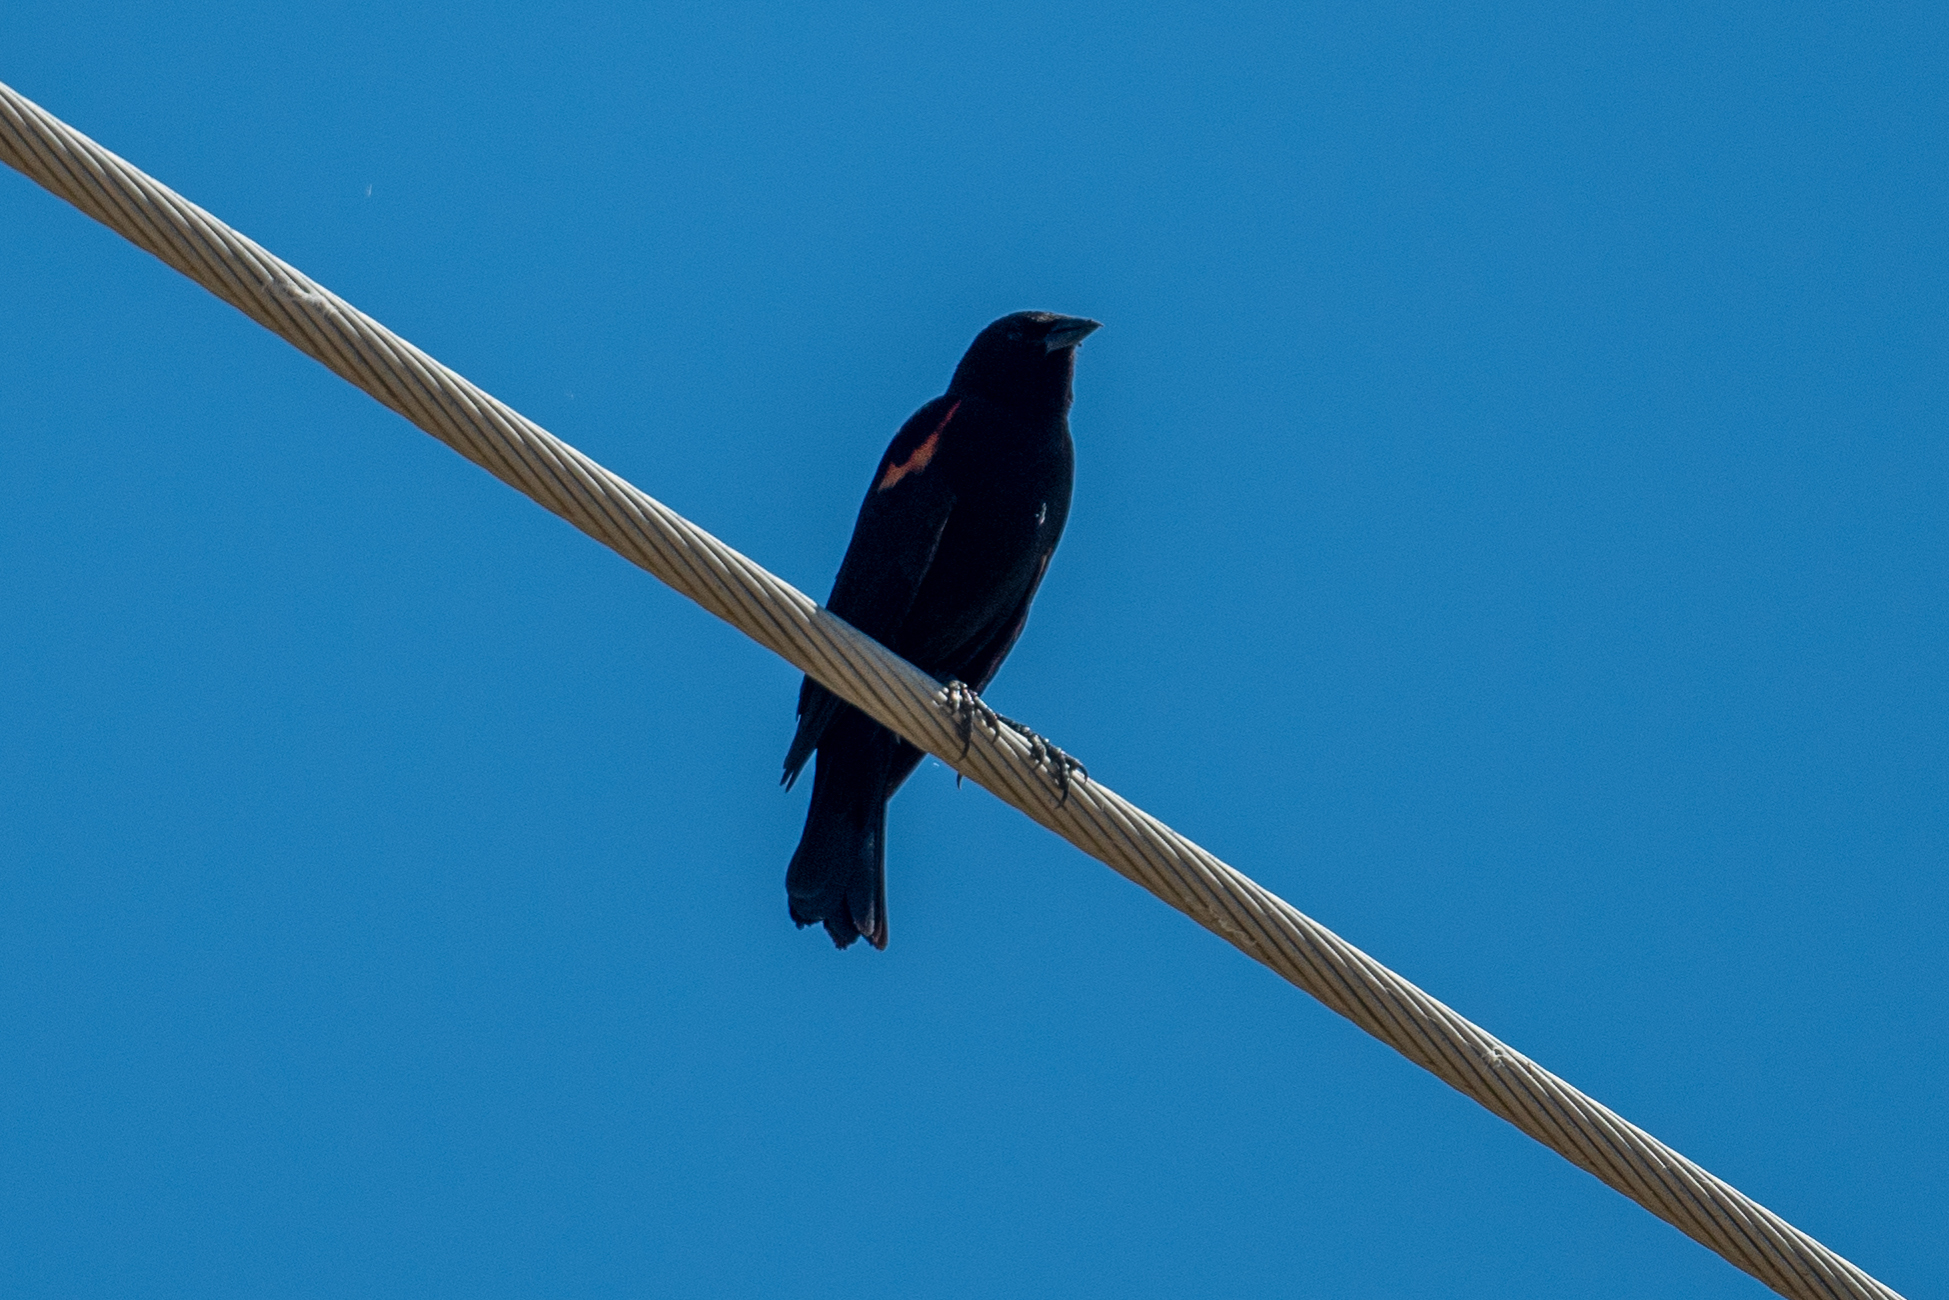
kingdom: Animalia
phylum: Chordata
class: Aves
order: Passeriformes
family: Icteridae
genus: Agelaius
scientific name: Agelaius phoeniceus
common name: Red-winged blackbird
